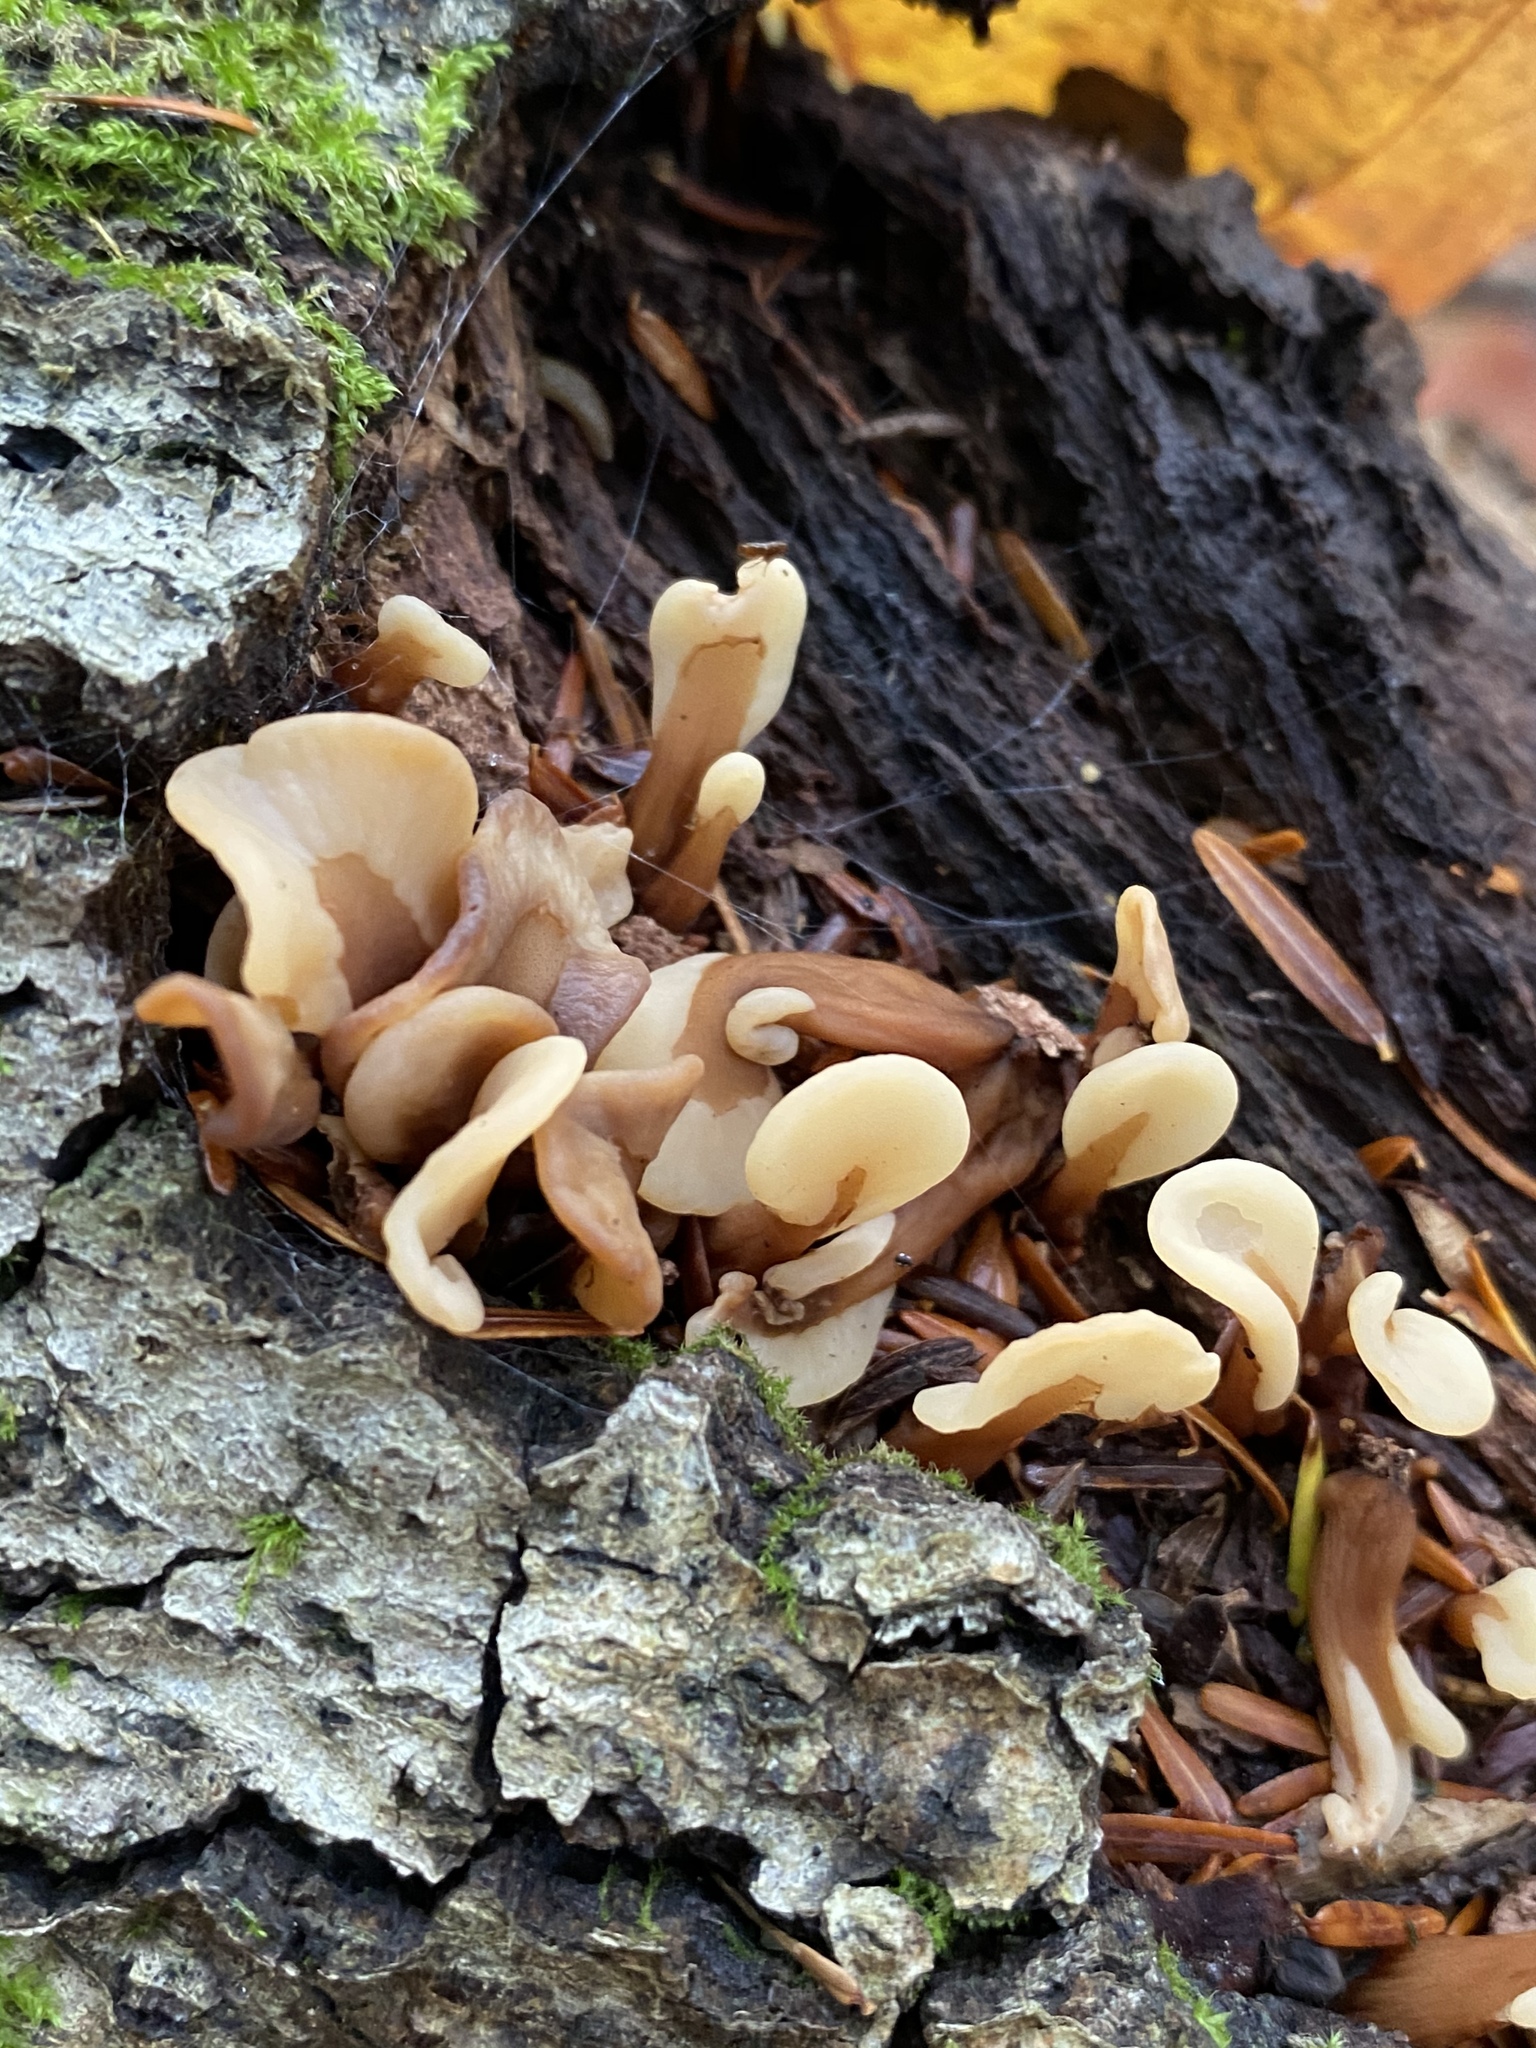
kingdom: Fungi
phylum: Ascomycota
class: Leotiomycetes
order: Rhytismatales
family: Cudoniaceae
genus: Spathulariopsis
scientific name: Spathulariopsis velutipes
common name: Velvet-foot fairy fan
